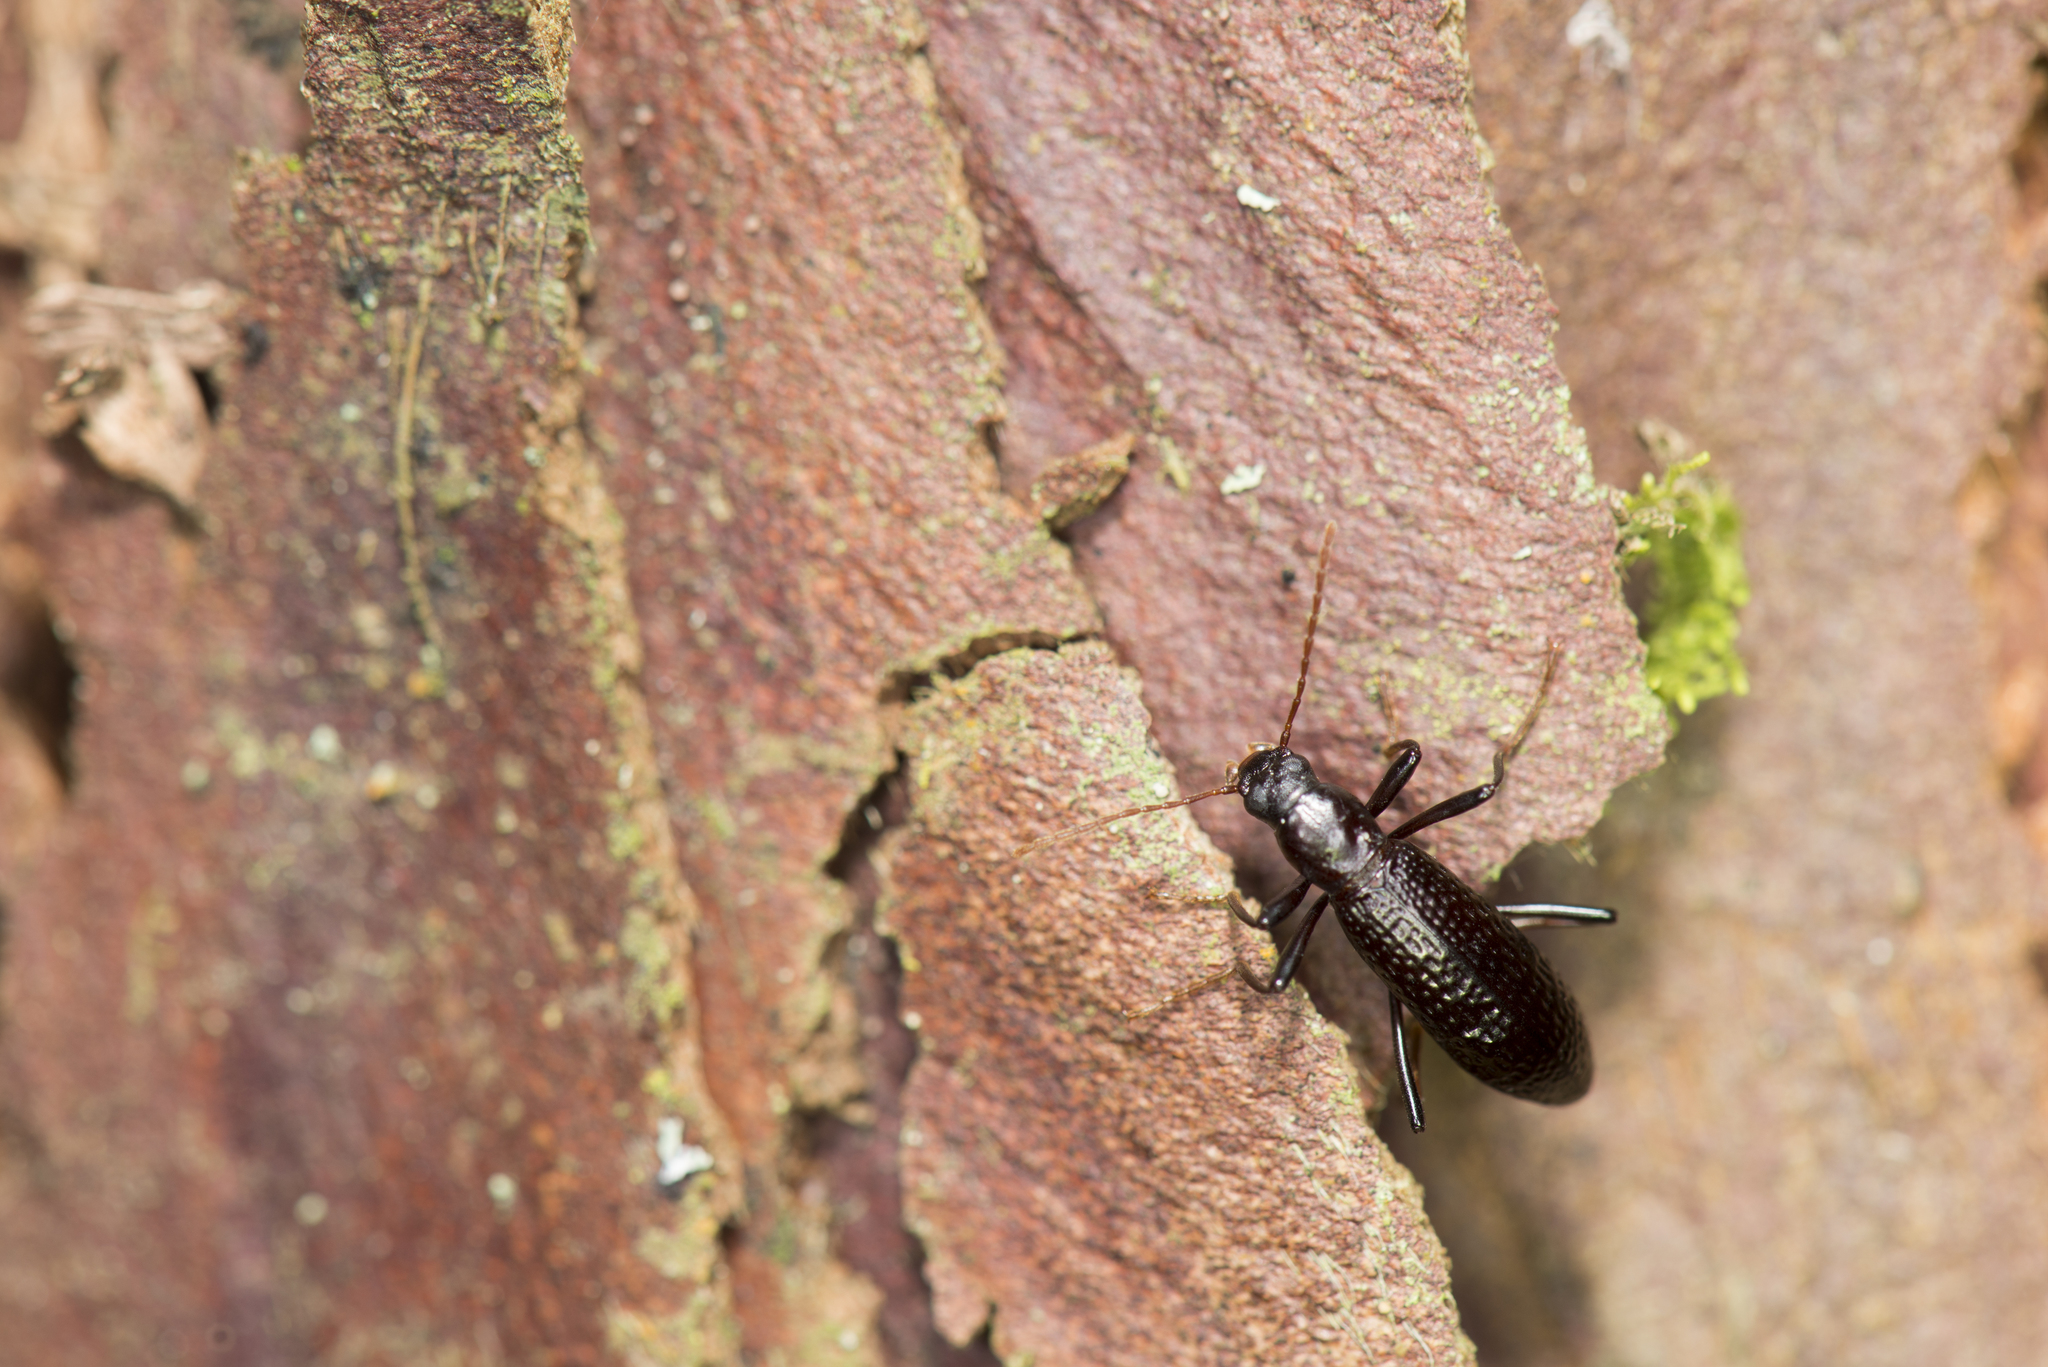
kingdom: Animalia
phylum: Arthropoda
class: Insecta
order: Coleoptera
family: Tenebrionidae
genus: Strongylium
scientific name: Strongylium clauda
